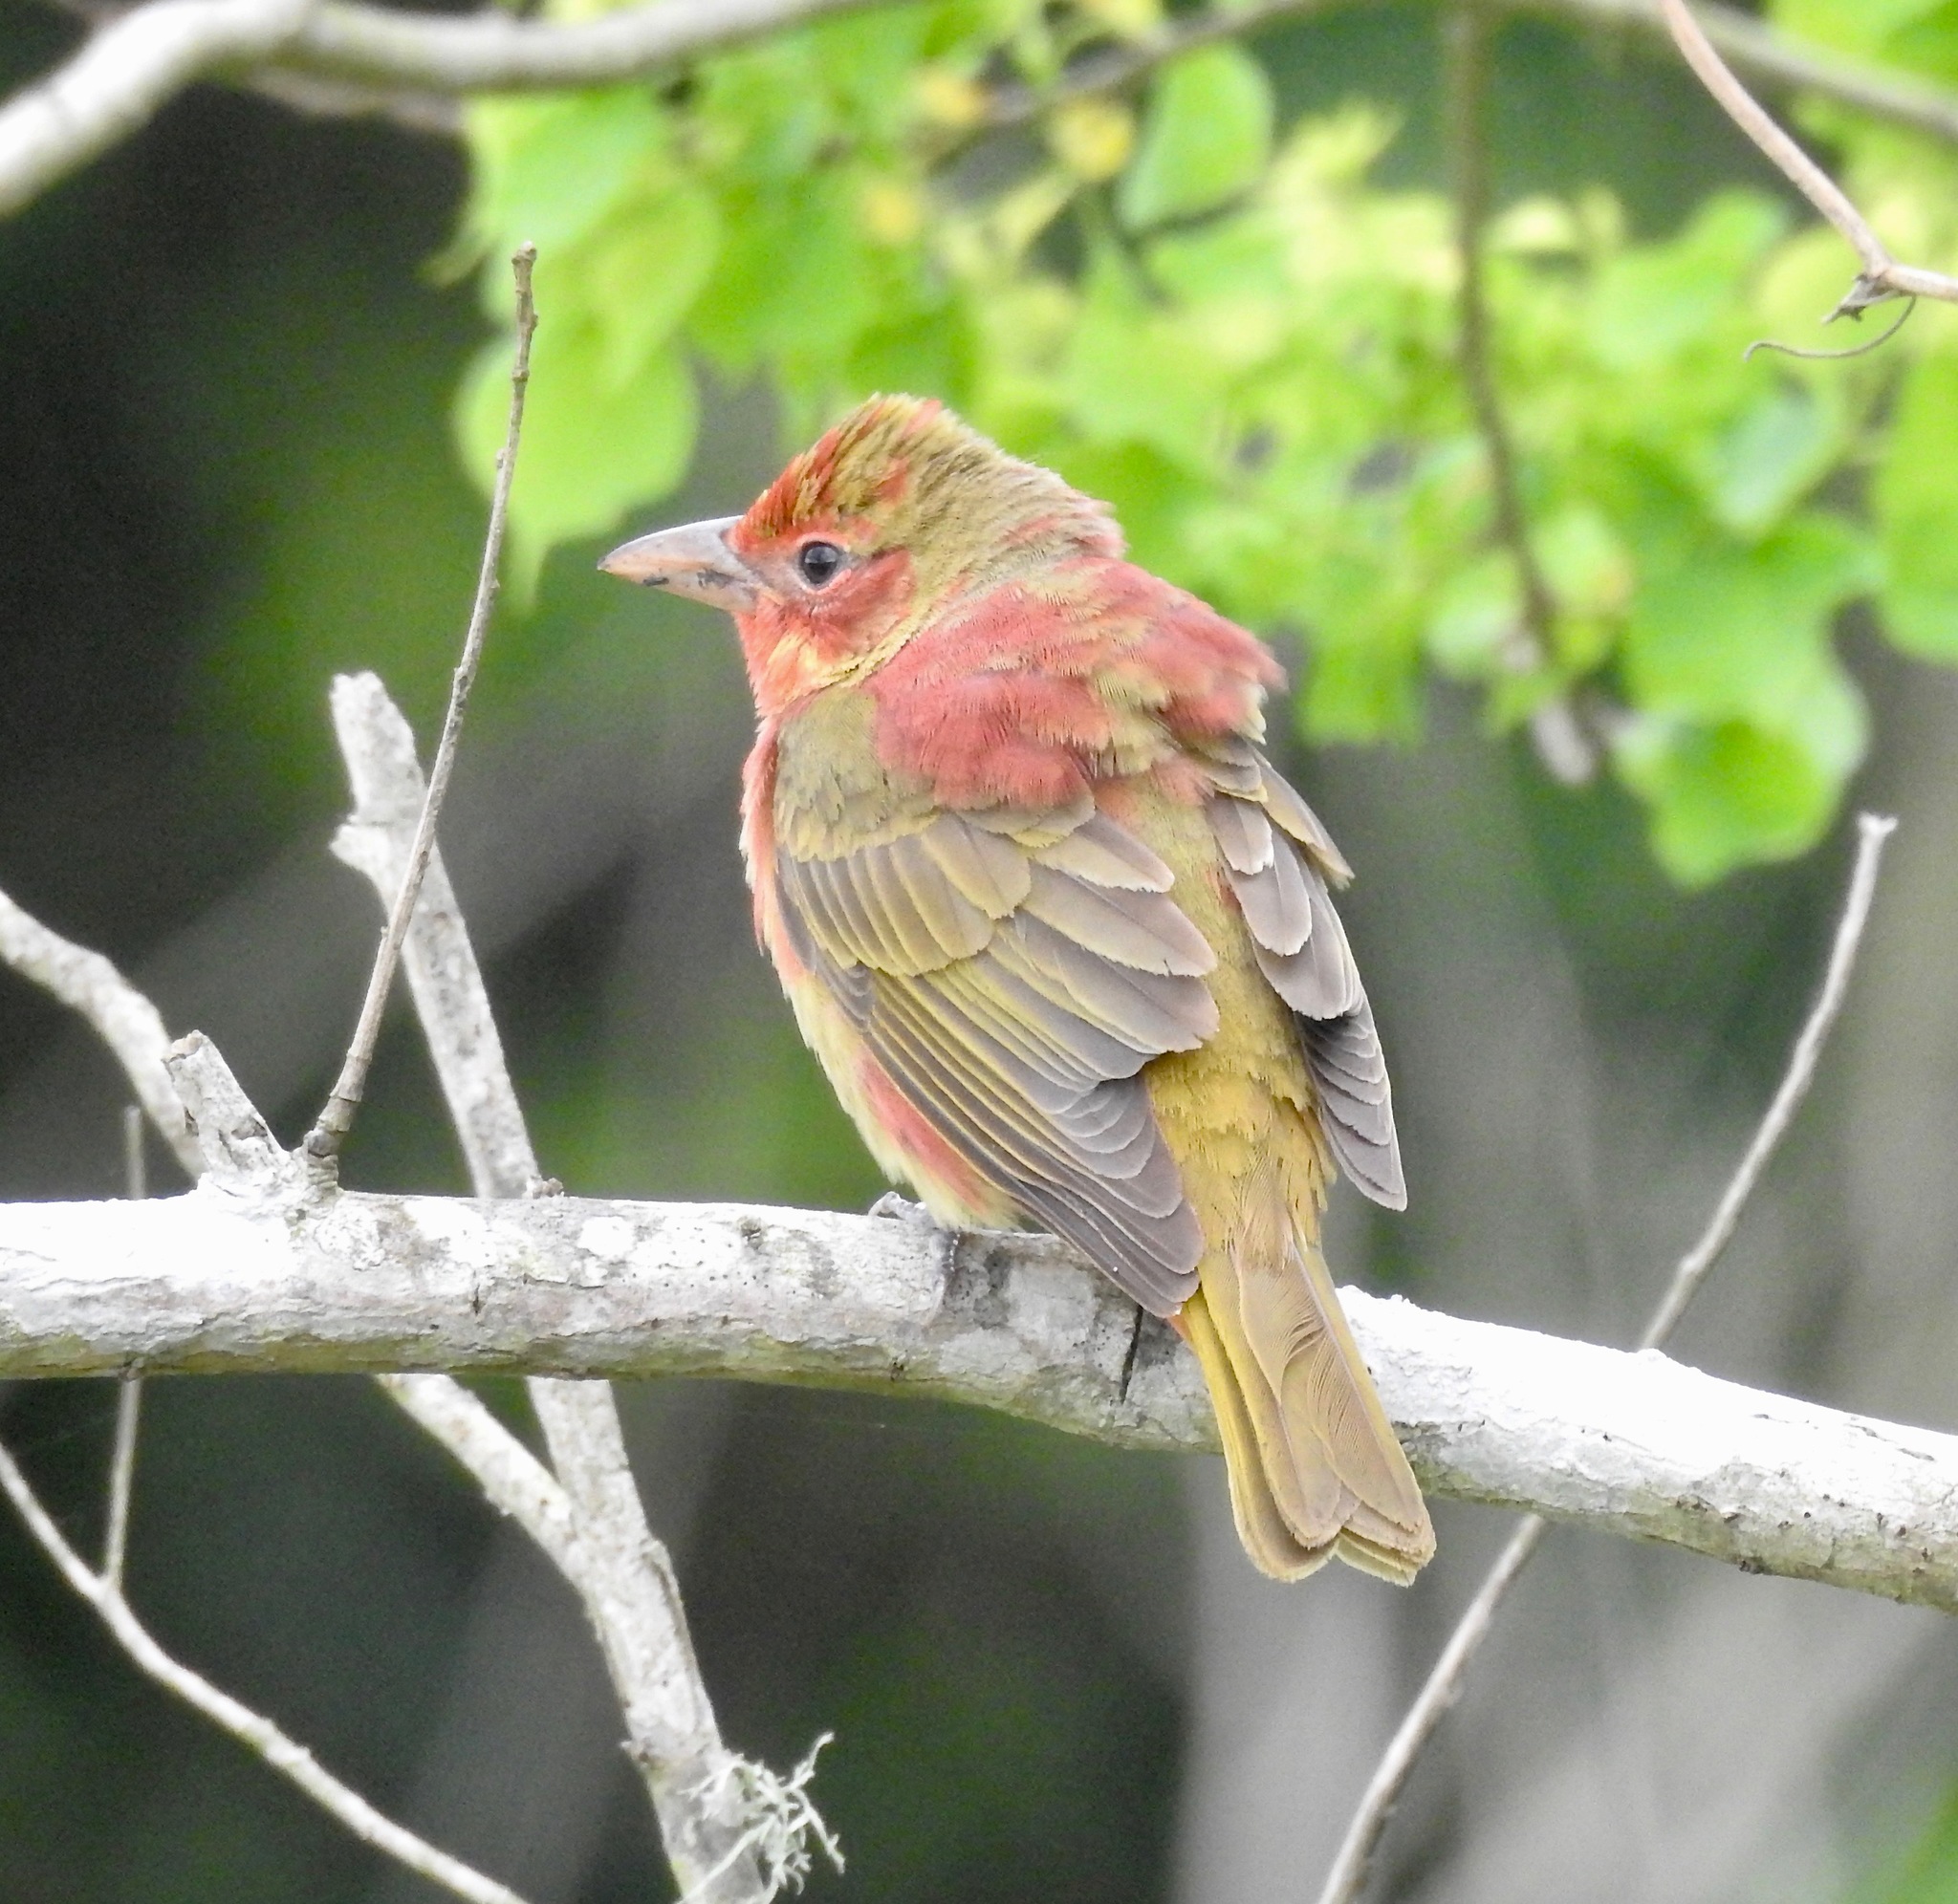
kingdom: Animalia
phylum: Chordata
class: Aves
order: Passeriformes
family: Cardinalidae
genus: Piranga
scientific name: Piranga rubra
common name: Summer tanager
